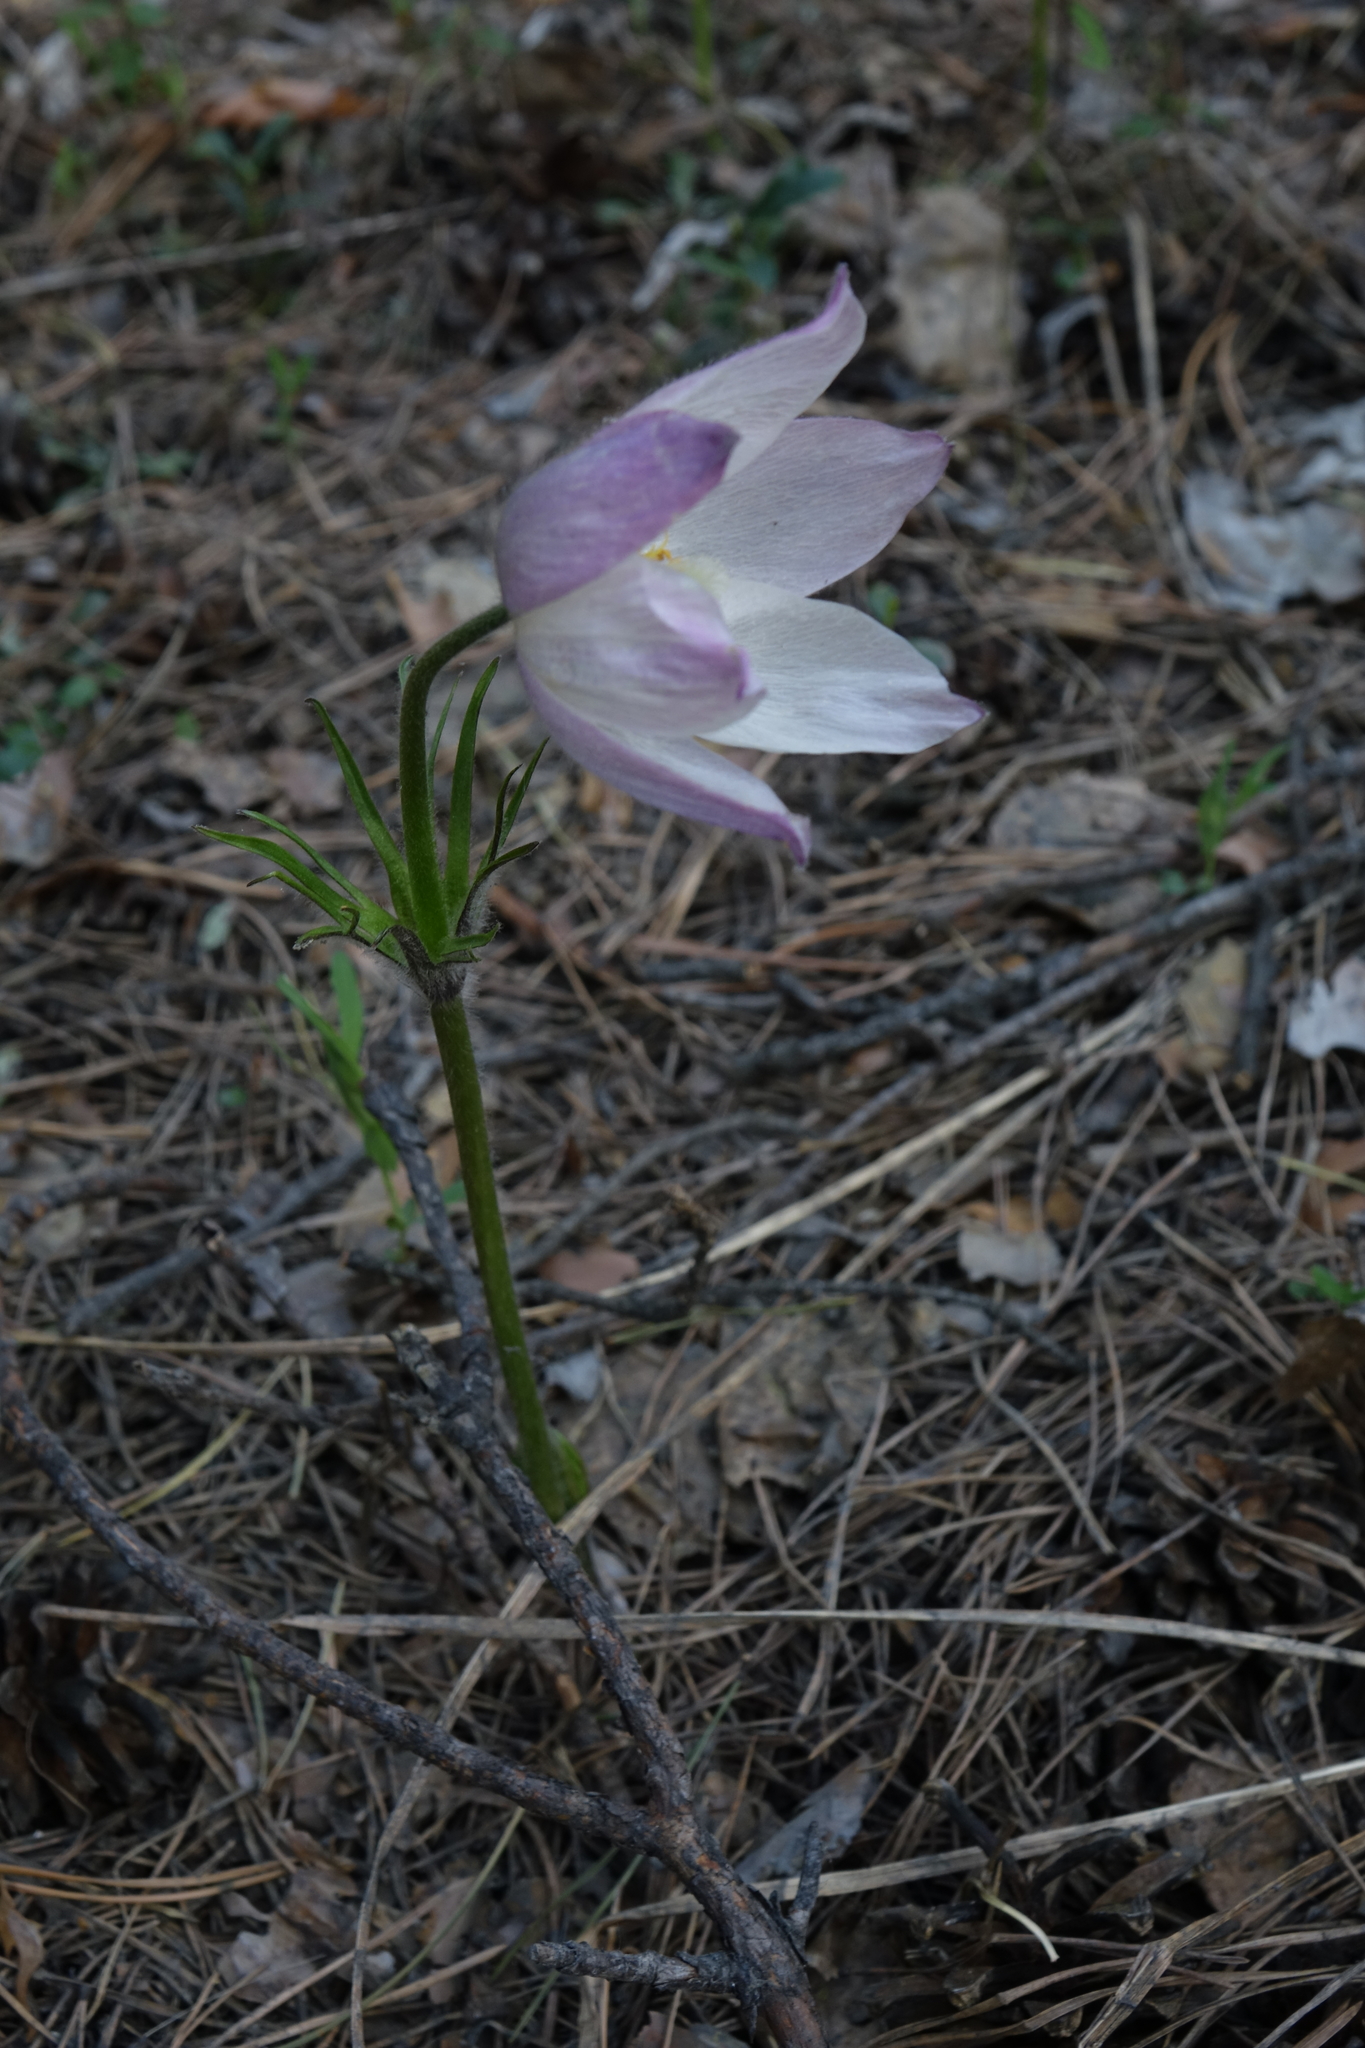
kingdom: Plantae
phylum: Tracheophyta
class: Magnoliopsida
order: Ranunculales
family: Ranunculaceae
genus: Pulsatilla
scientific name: Pulsatilla patens
